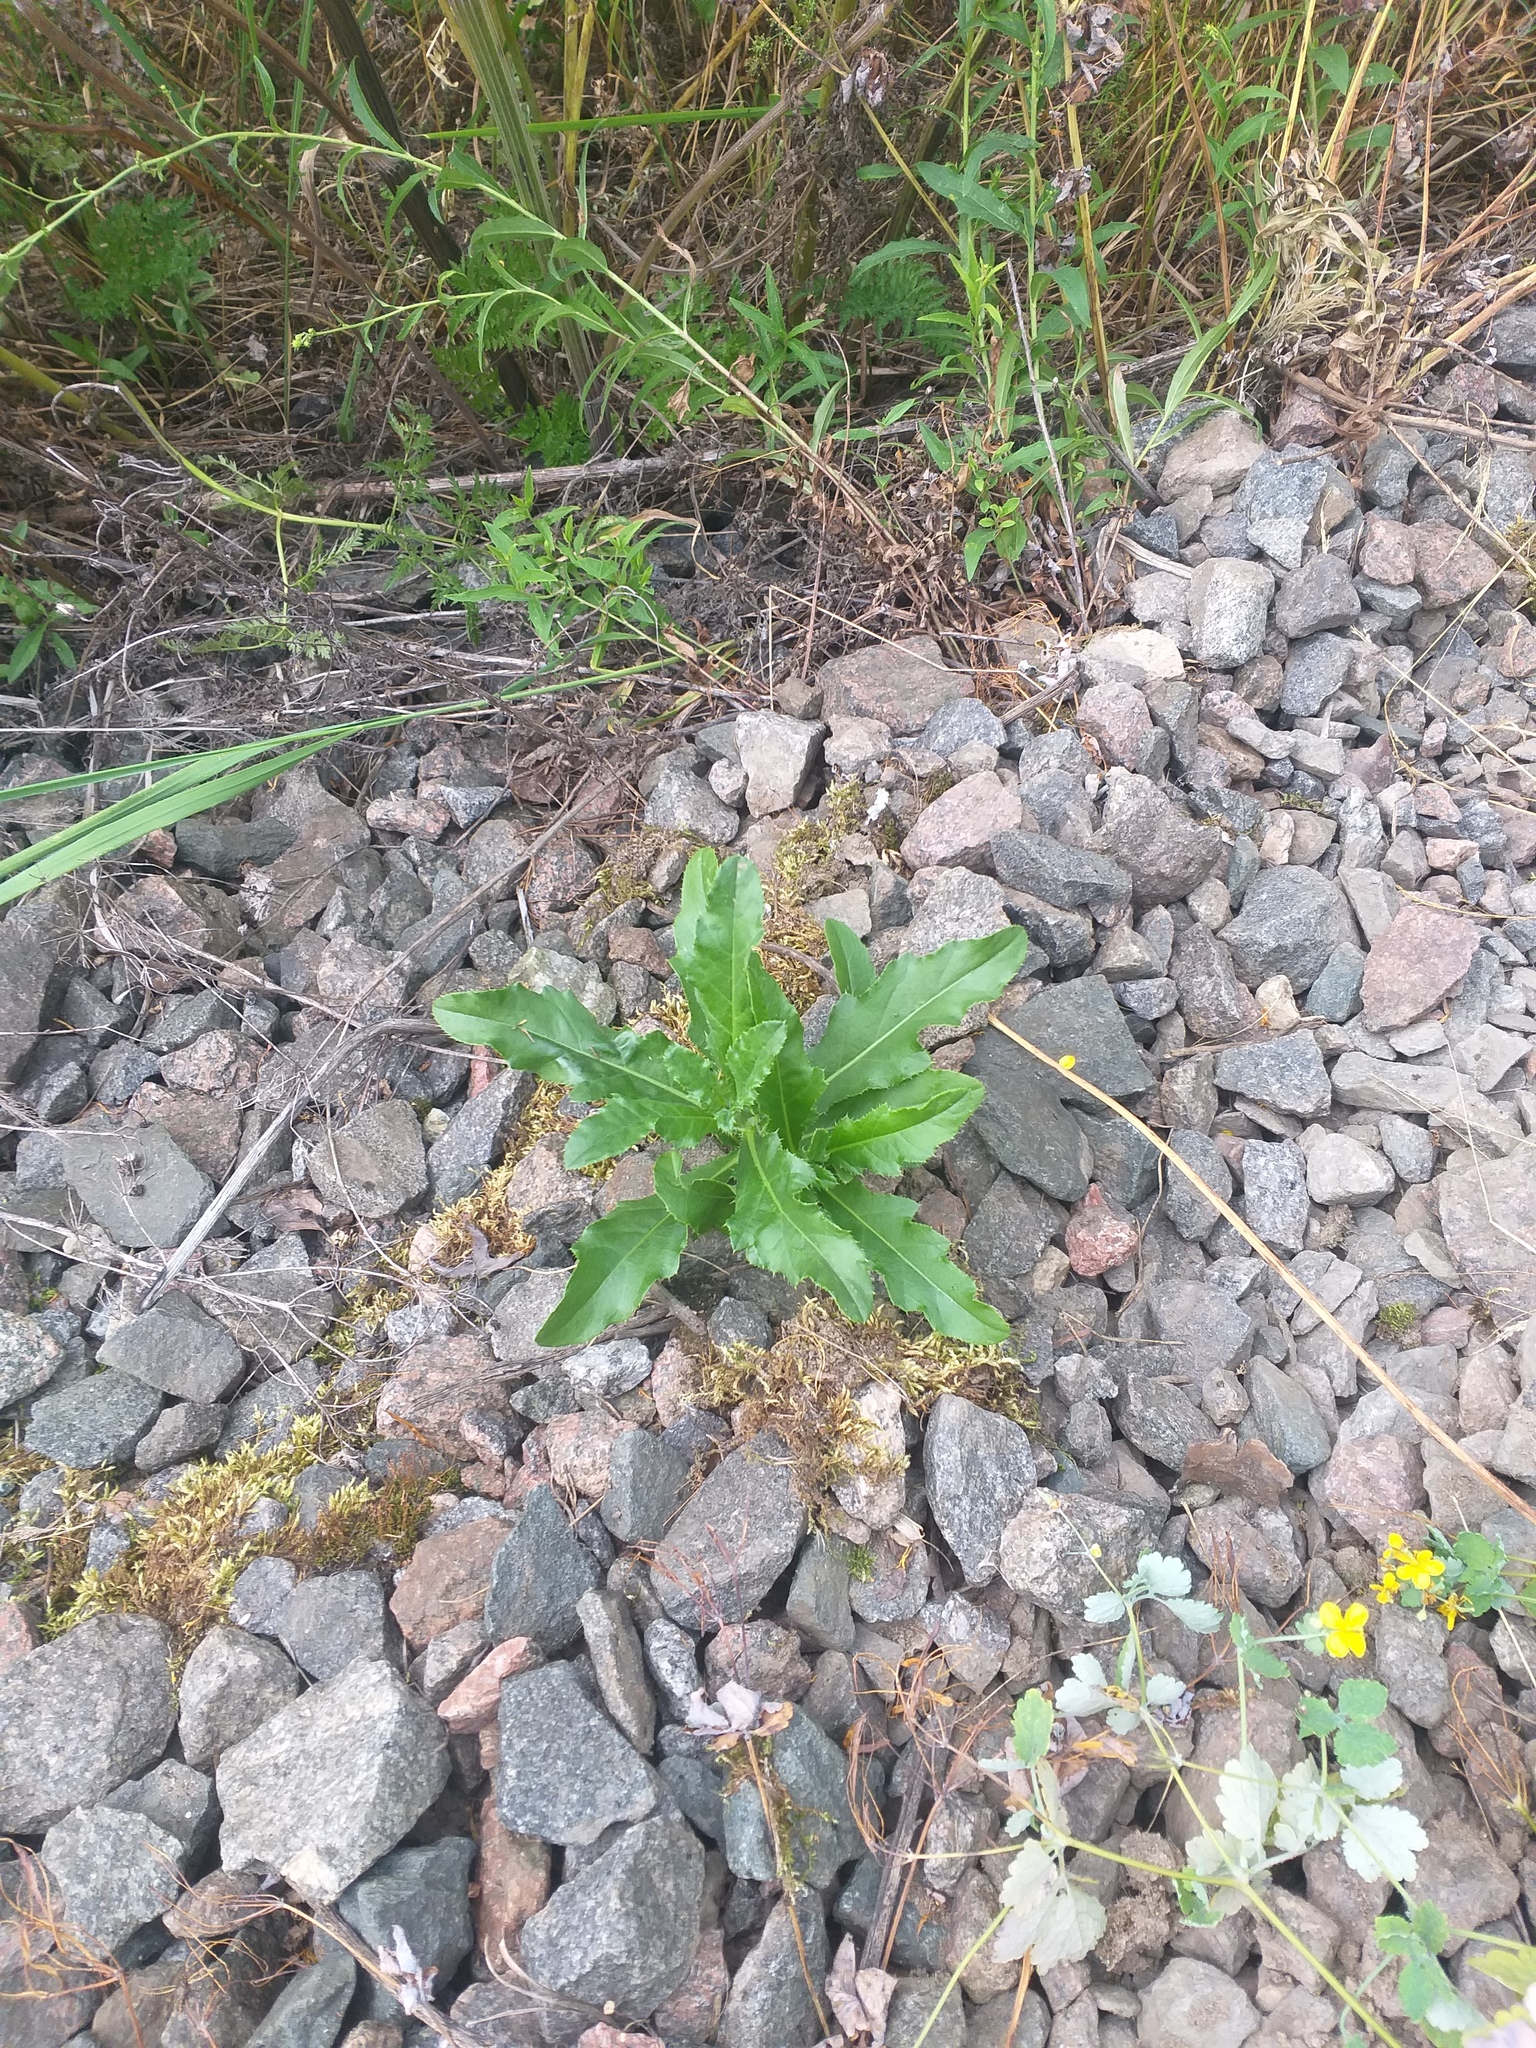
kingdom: Plantae
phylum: Tracheophyta
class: Magnoliopsida
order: Asterales
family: Asteraceae
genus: Cirsium
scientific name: Cirsium arvense
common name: Creeping thistle
